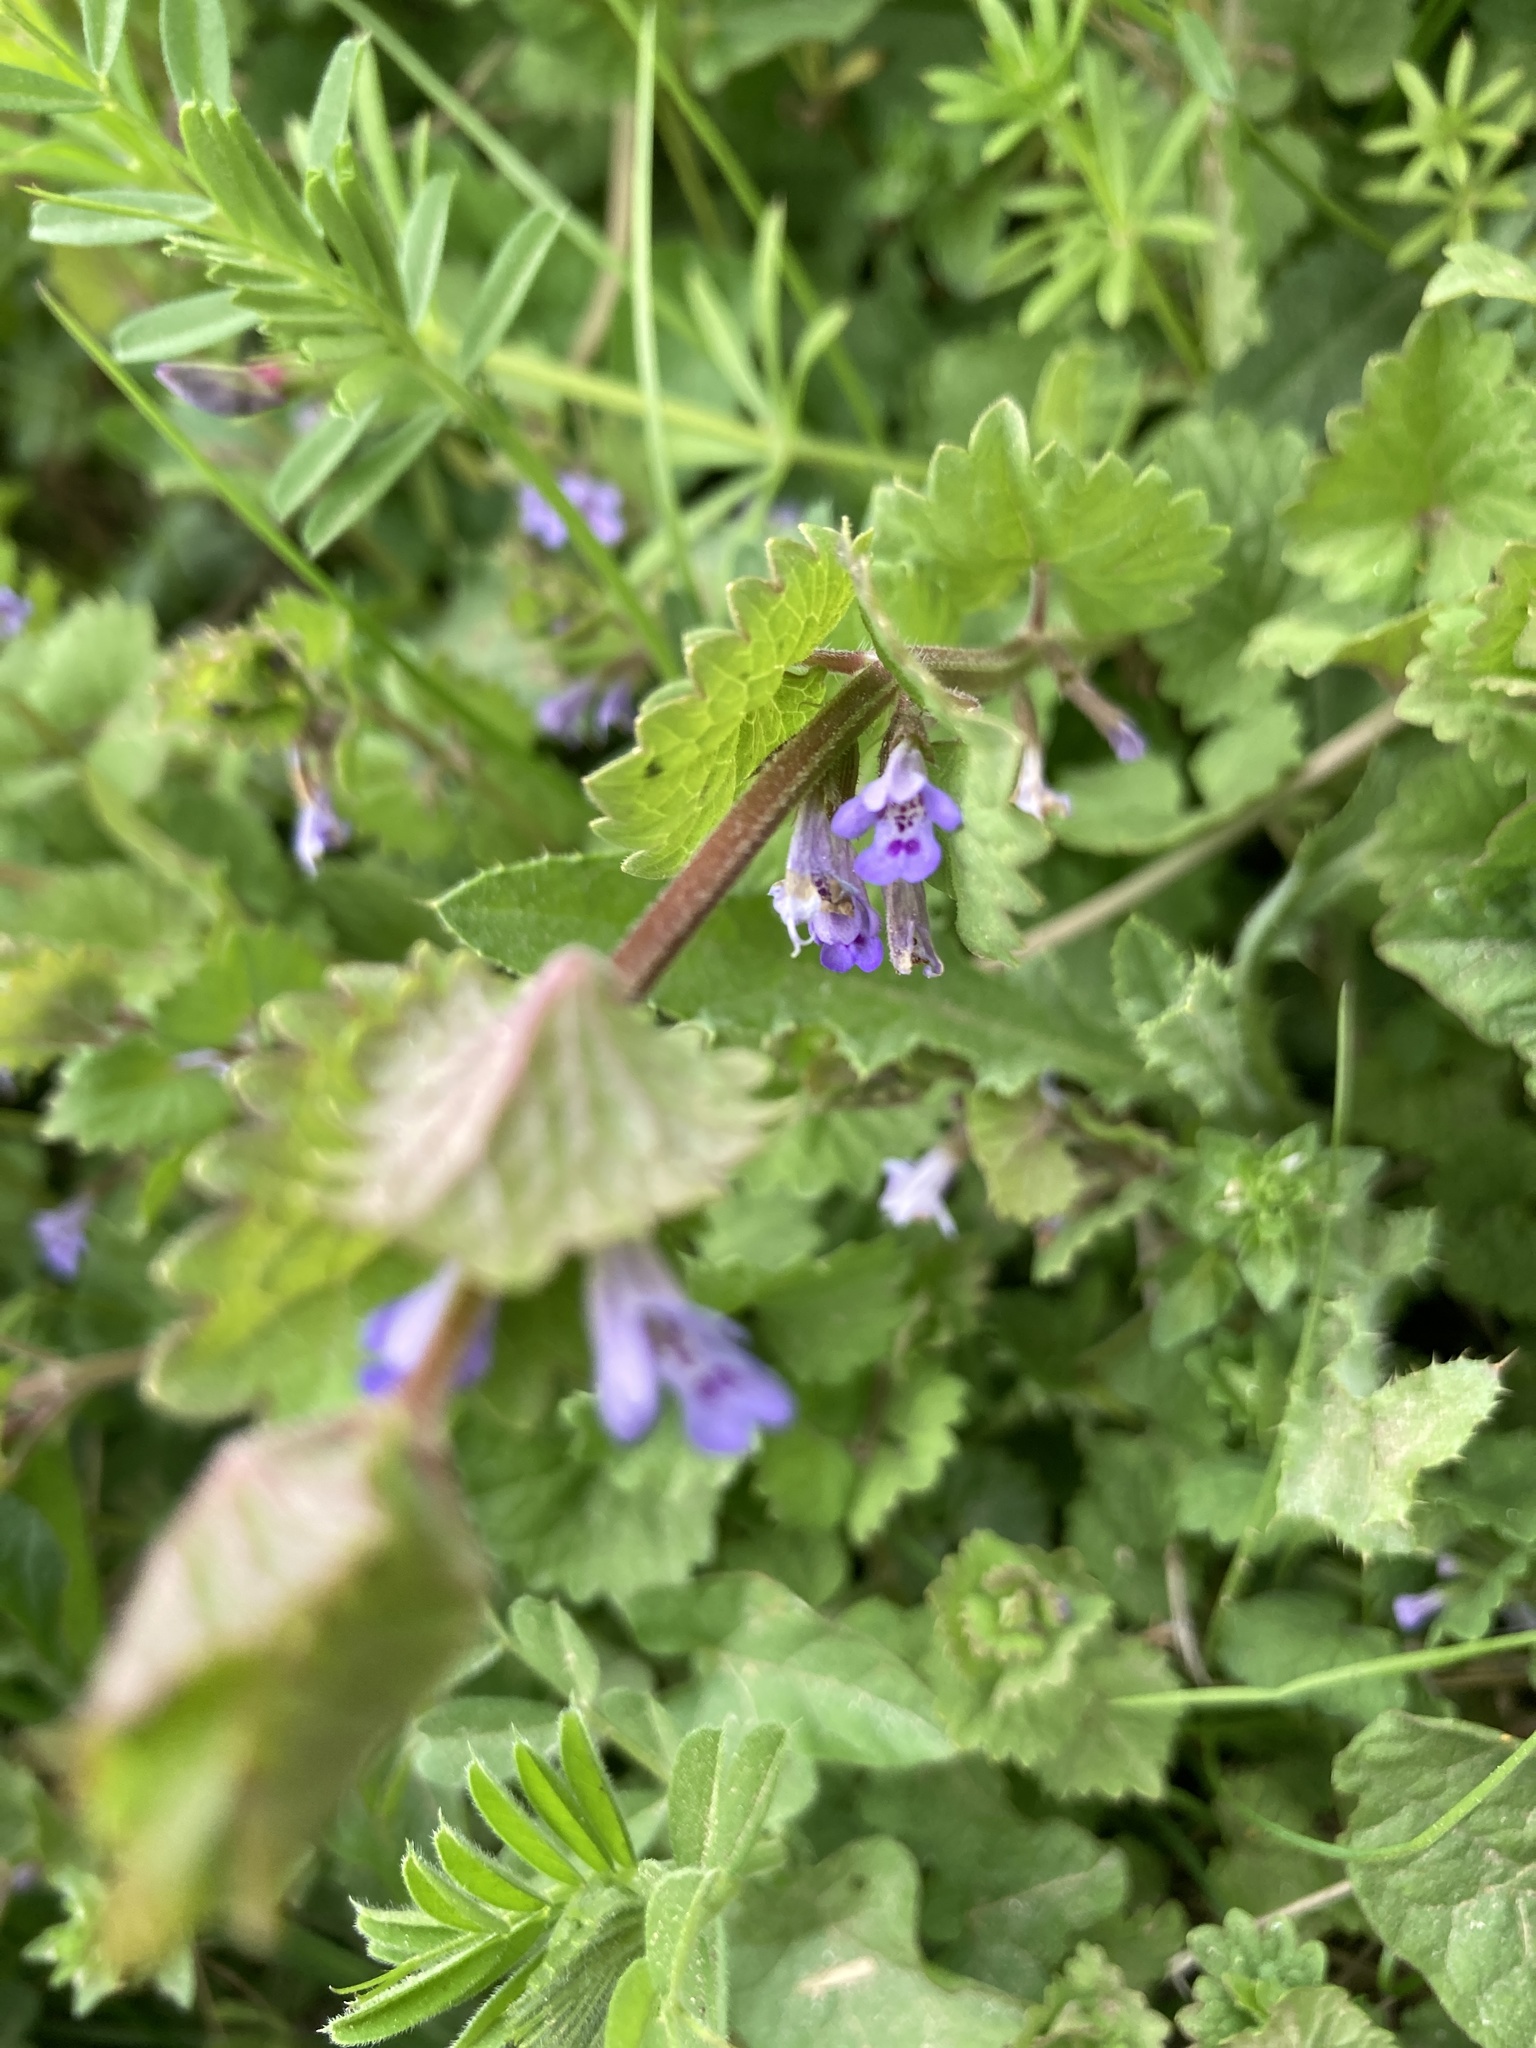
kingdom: Plantae
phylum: Tracheophyta
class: Magnoliopsida
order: Lamiales
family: Lamiaceae
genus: Glechoma
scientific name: Glechoma hederacea
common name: Ground ivy
